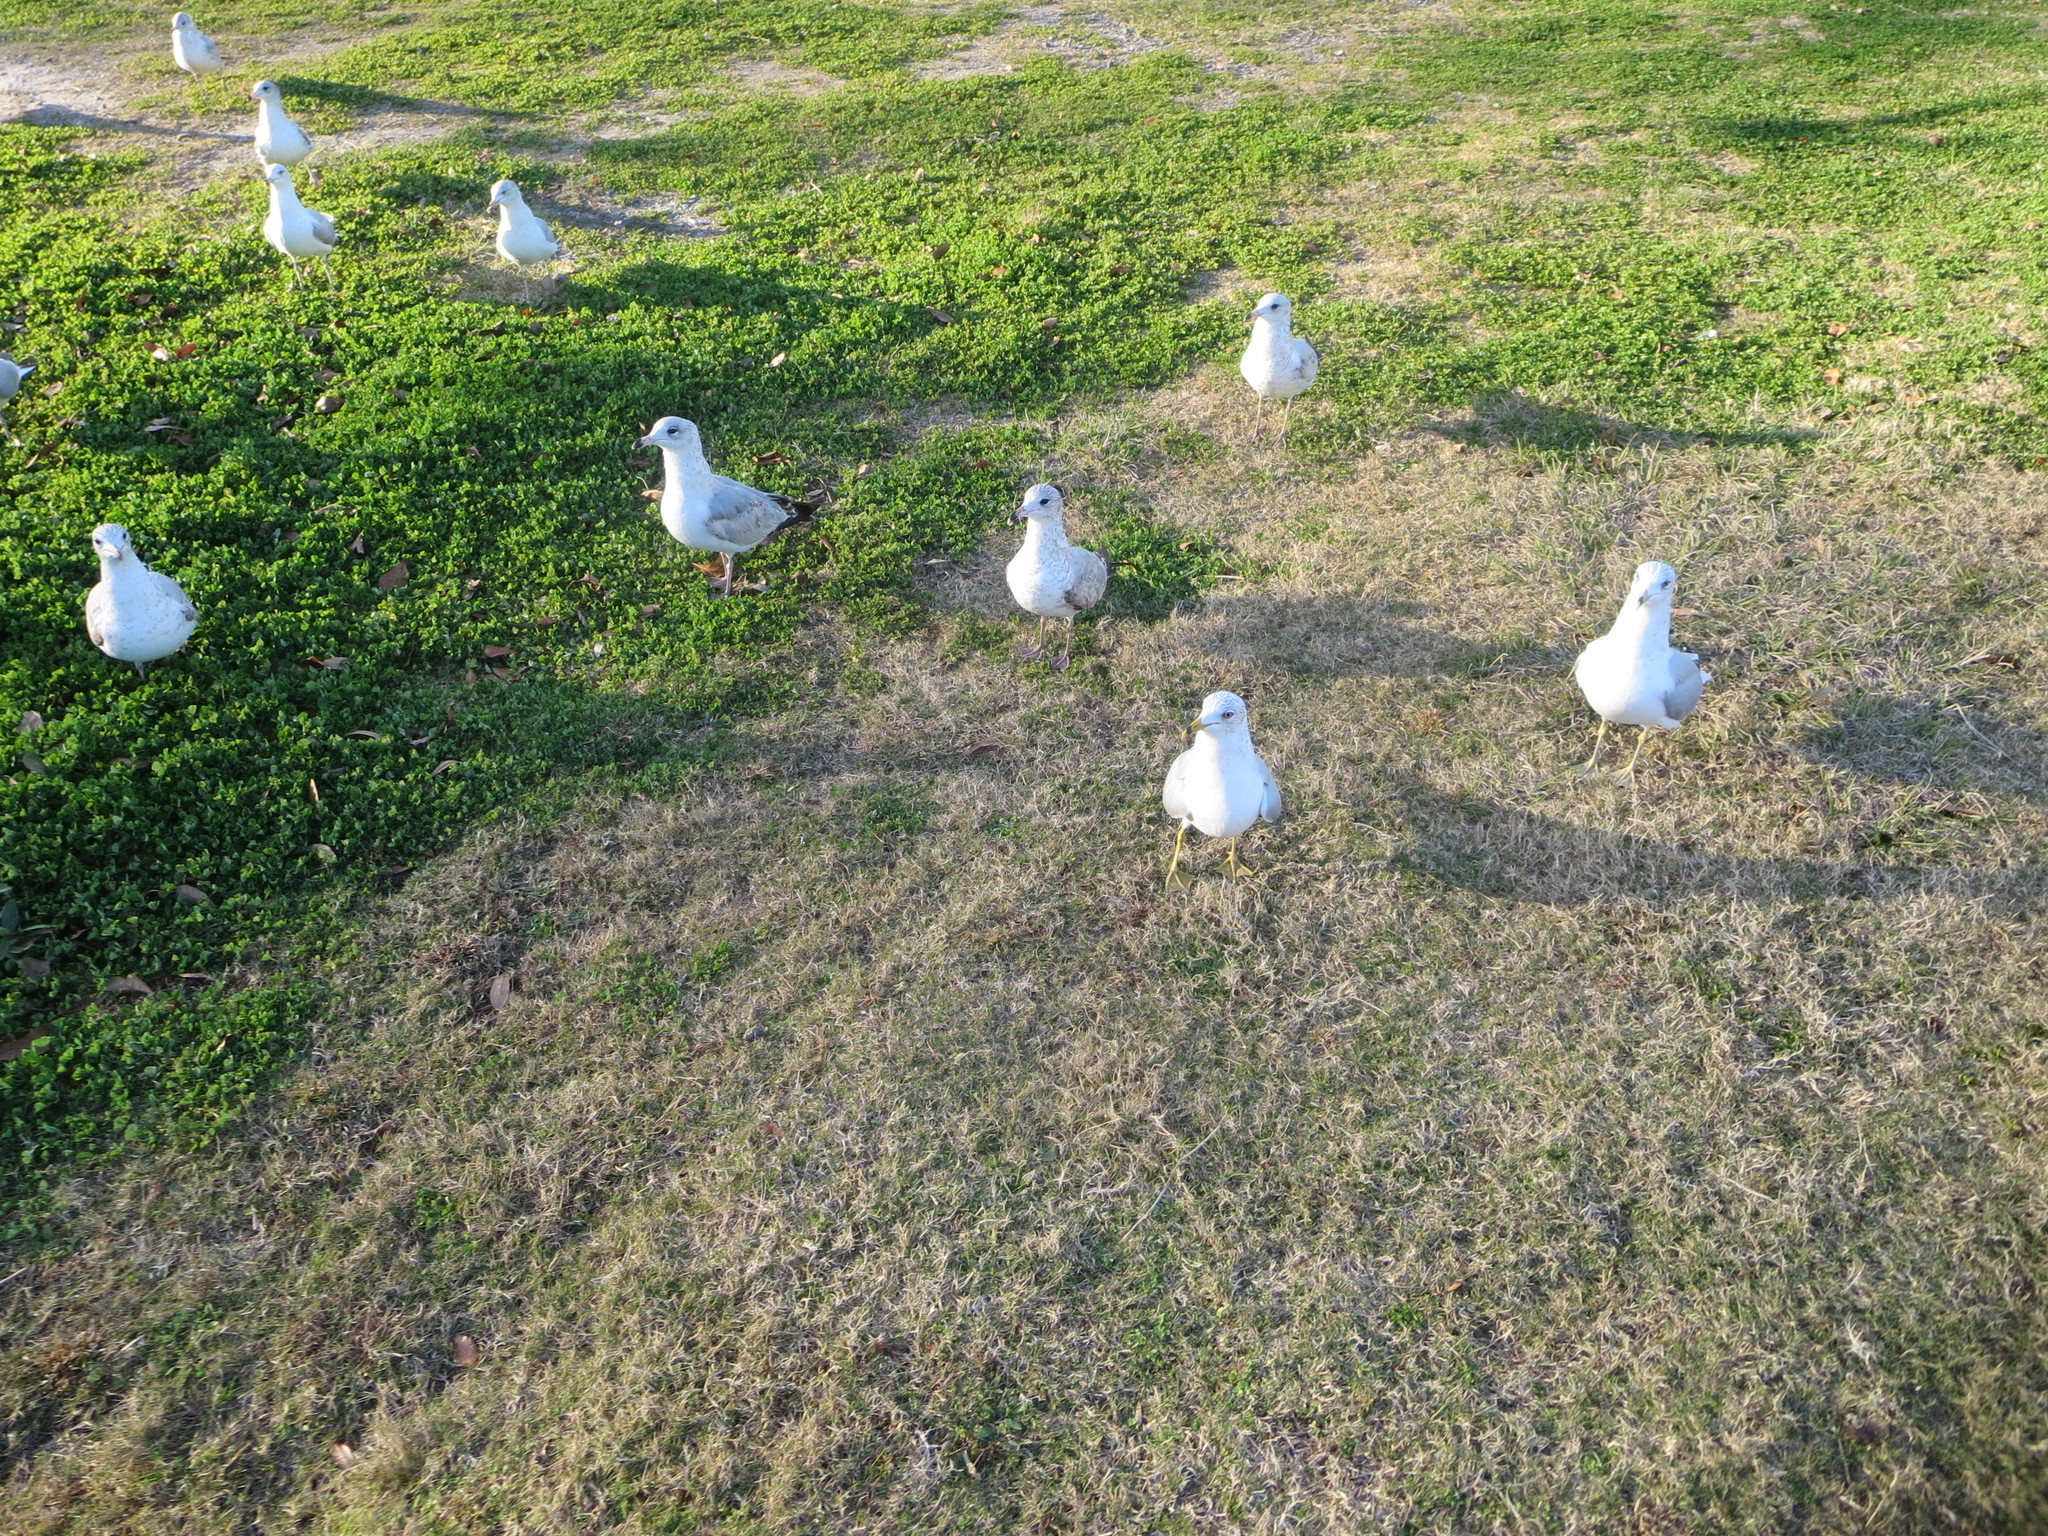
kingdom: Animalia
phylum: Chordata
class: Aves
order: Charadriiformes
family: Laridae
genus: Larus
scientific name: Larus delawarensis
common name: Ring-billed gull
